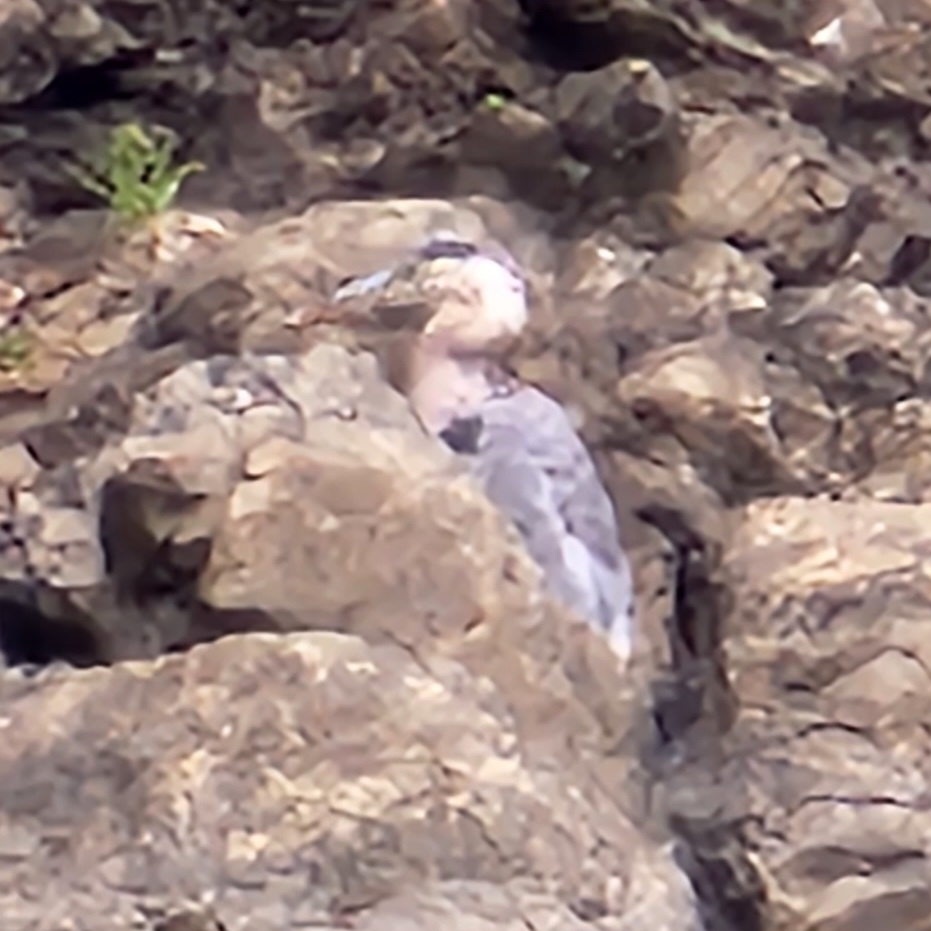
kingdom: Animalia
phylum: Chordata
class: Aves
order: Pelecaniformes
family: Ardeidae
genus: Ardea
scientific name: Ardea herodias
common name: Great blue heron
